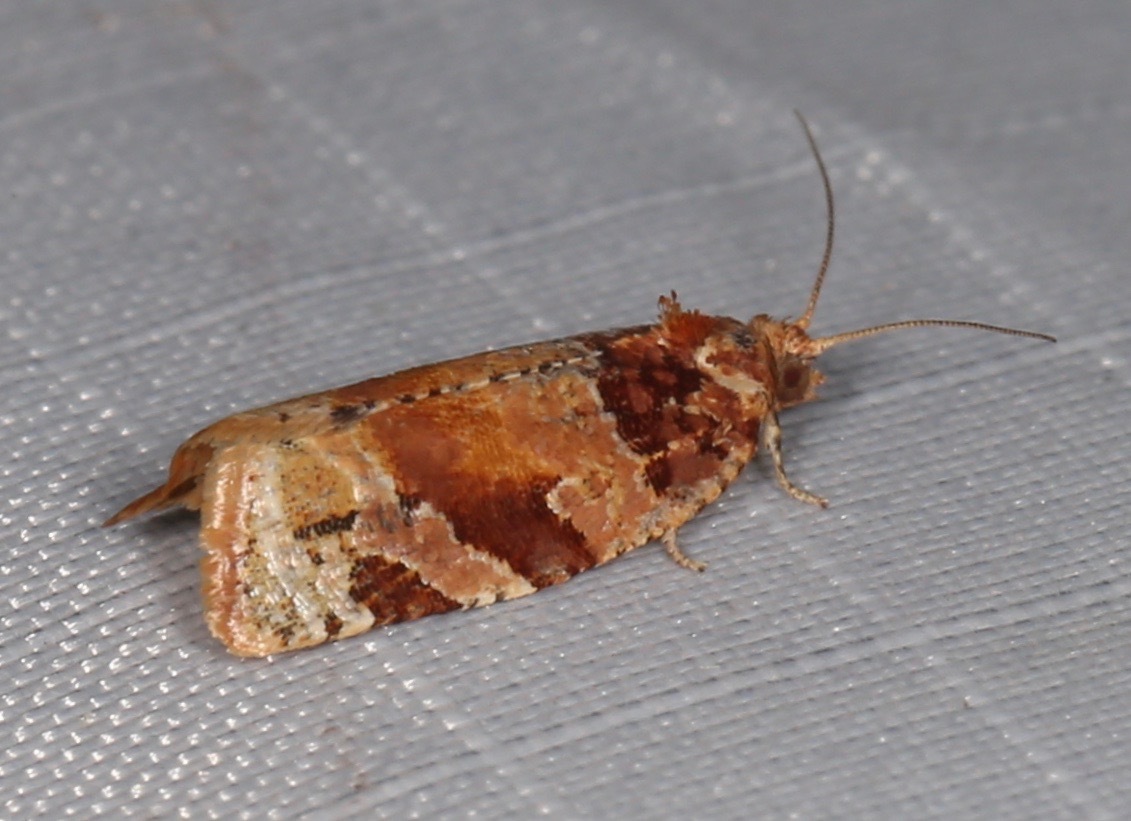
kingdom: Animalia
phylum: Arthropoda
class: Insecta
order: Lepidoptera
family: Tortricidae
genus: Argyrotaenia
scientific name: Argyrotaenia kimballi
